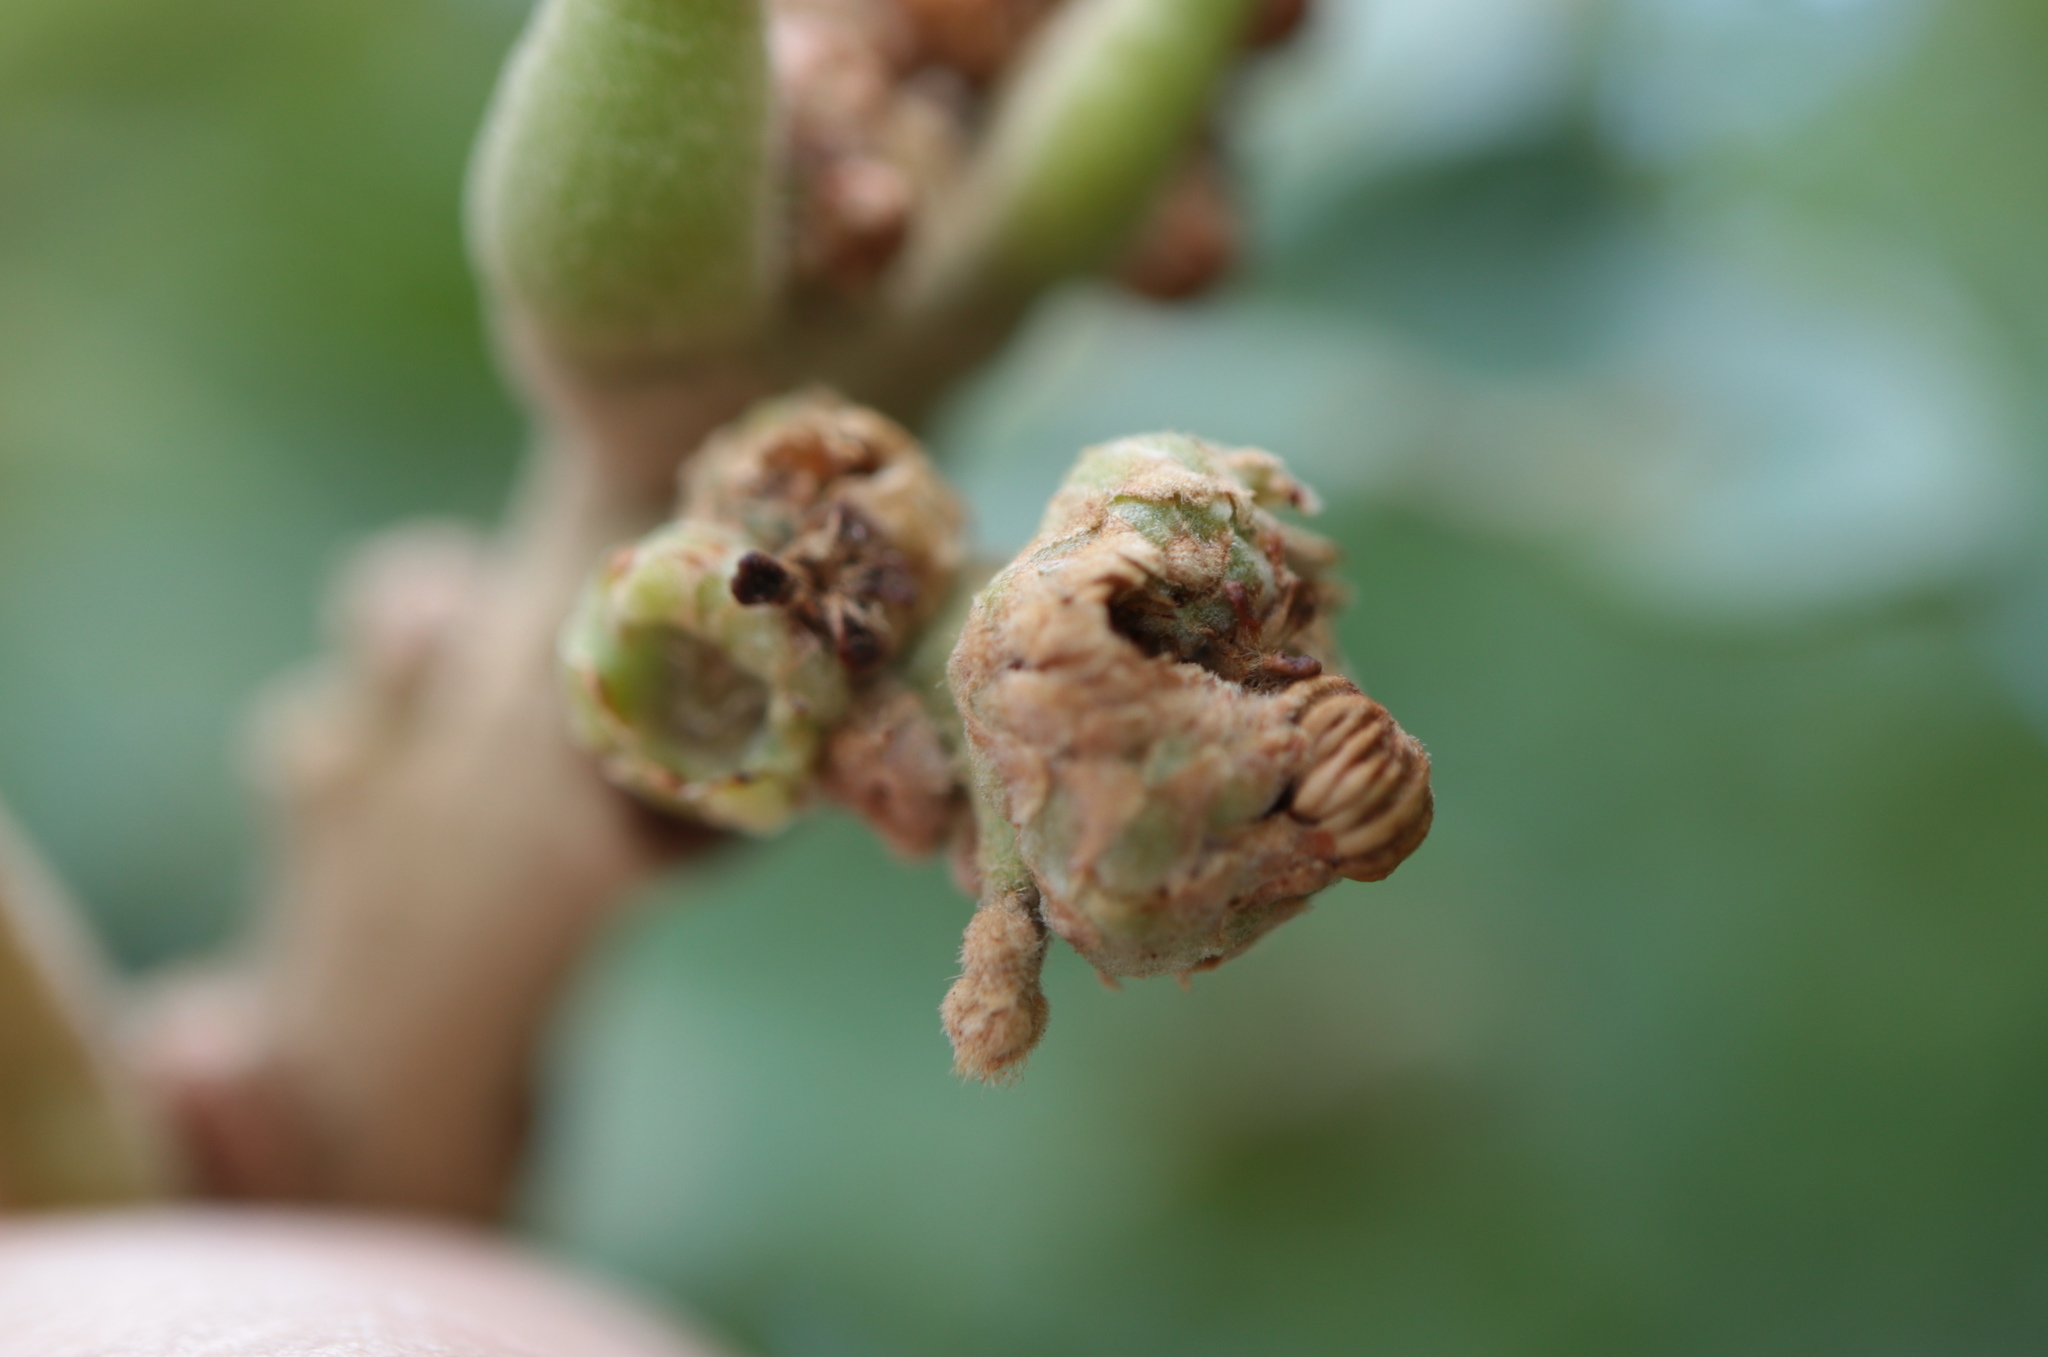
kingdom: Animalia
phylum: Arthropoda
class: Insecta
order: Hymenoptera
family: Cynipidae
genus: Callirhytis
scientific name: Callirhytis
